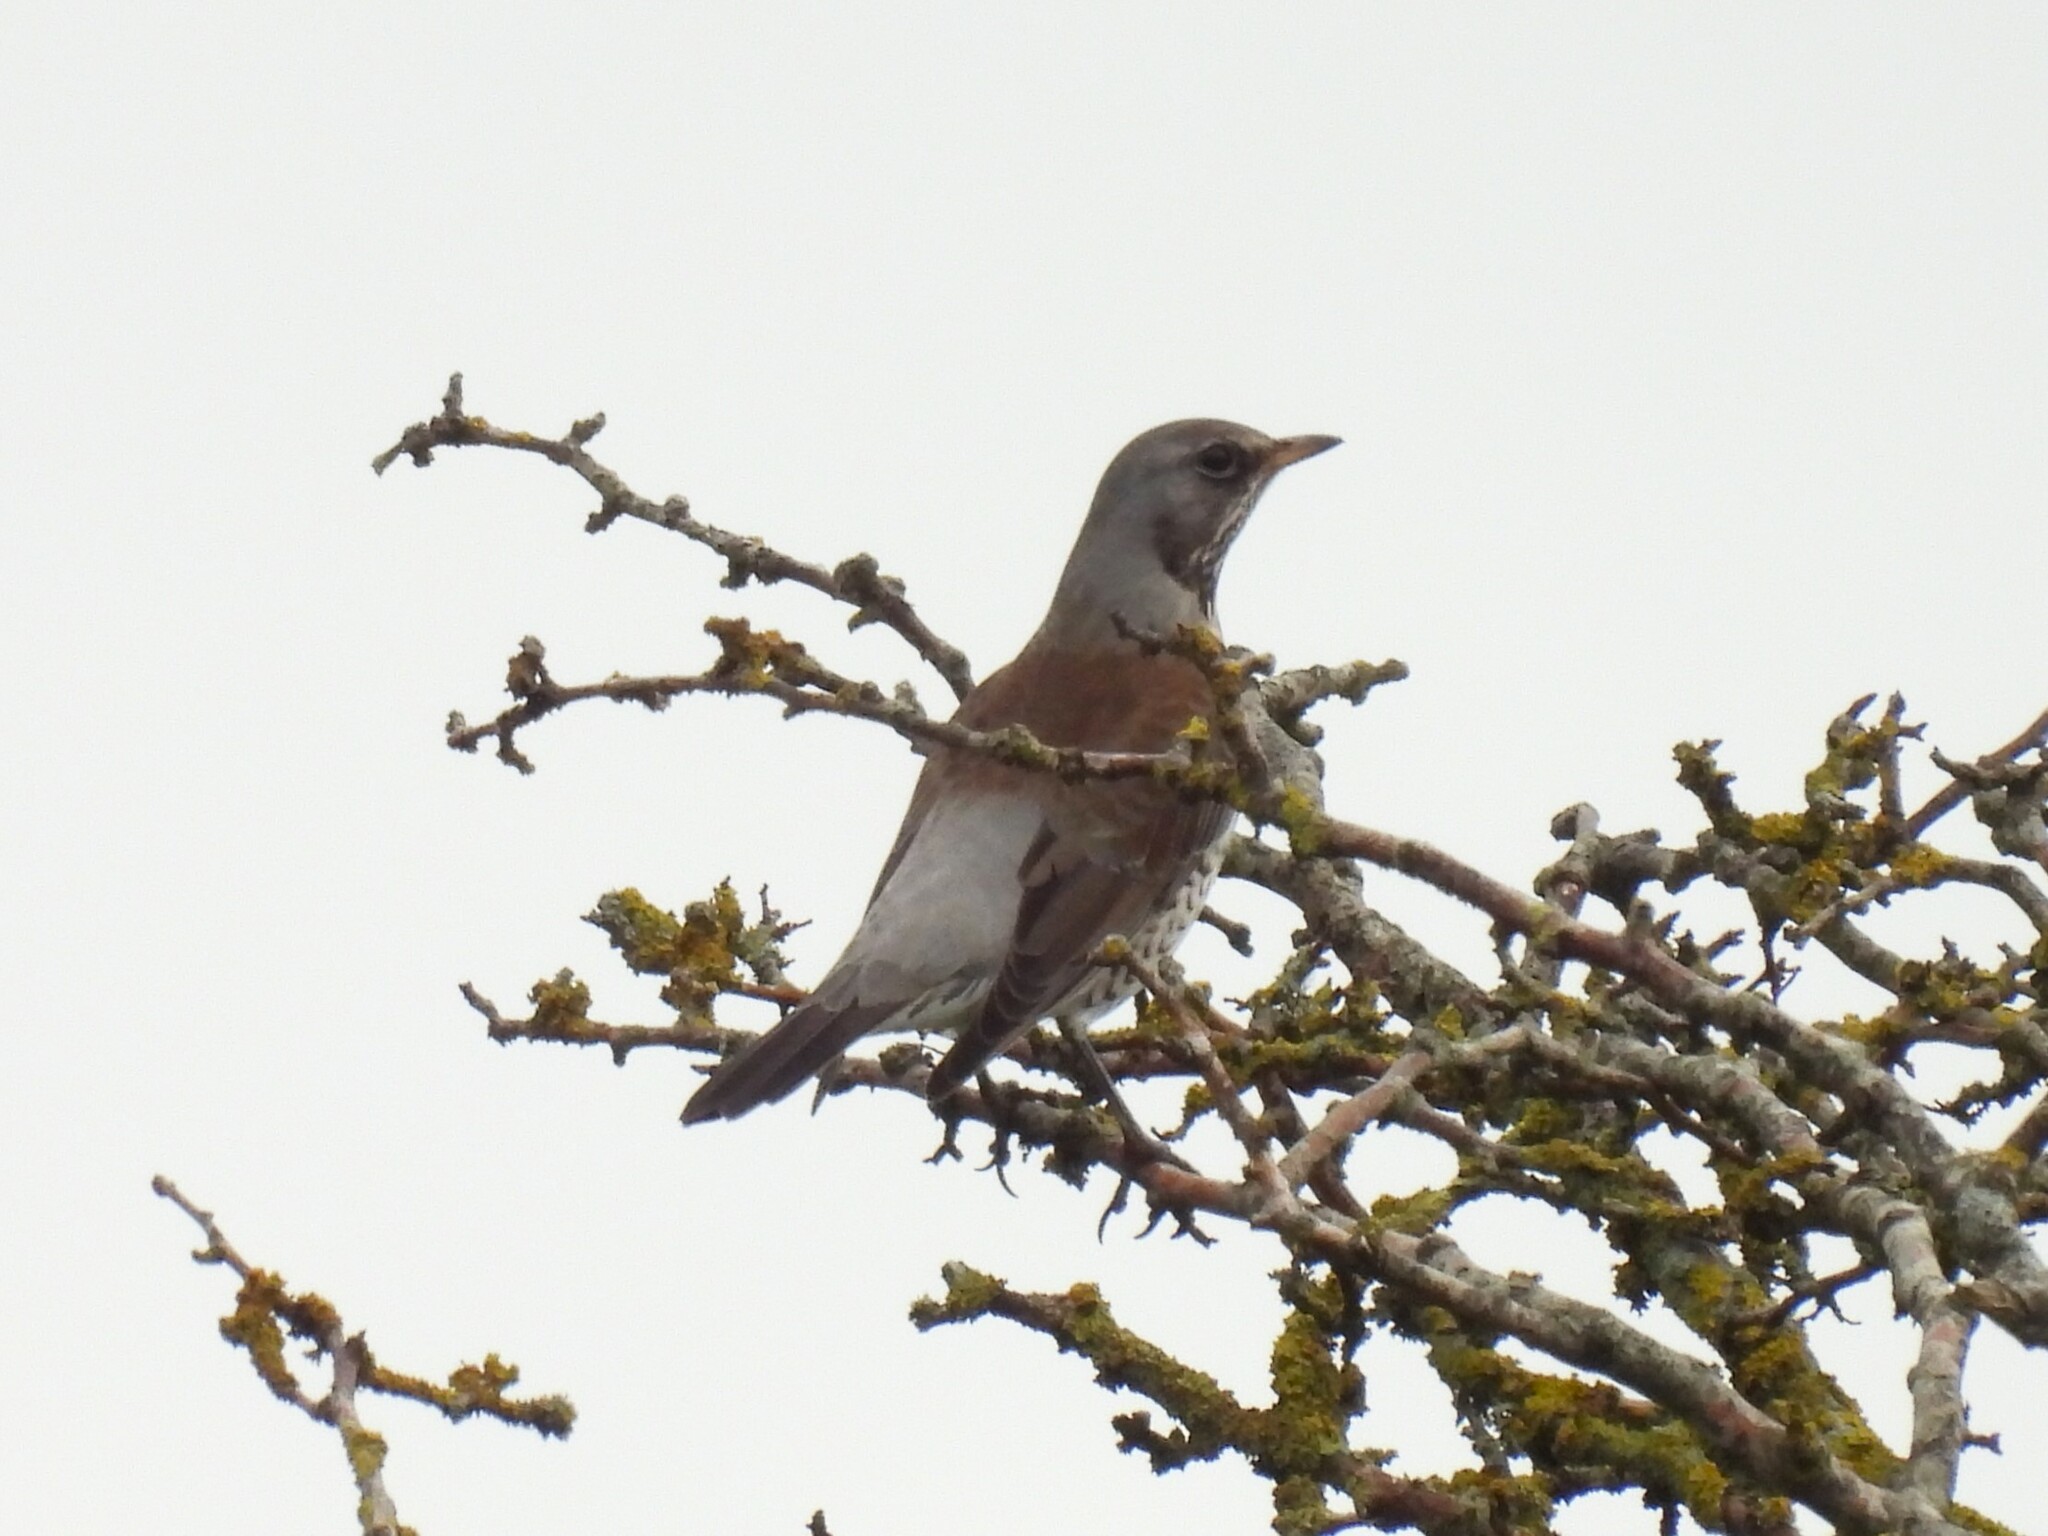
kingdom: Animalia
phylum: Chordata
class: Aves
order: Passeriformes
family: Turdidae
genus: Turdus
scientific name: Turdus pilaris
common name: Fieldfare
